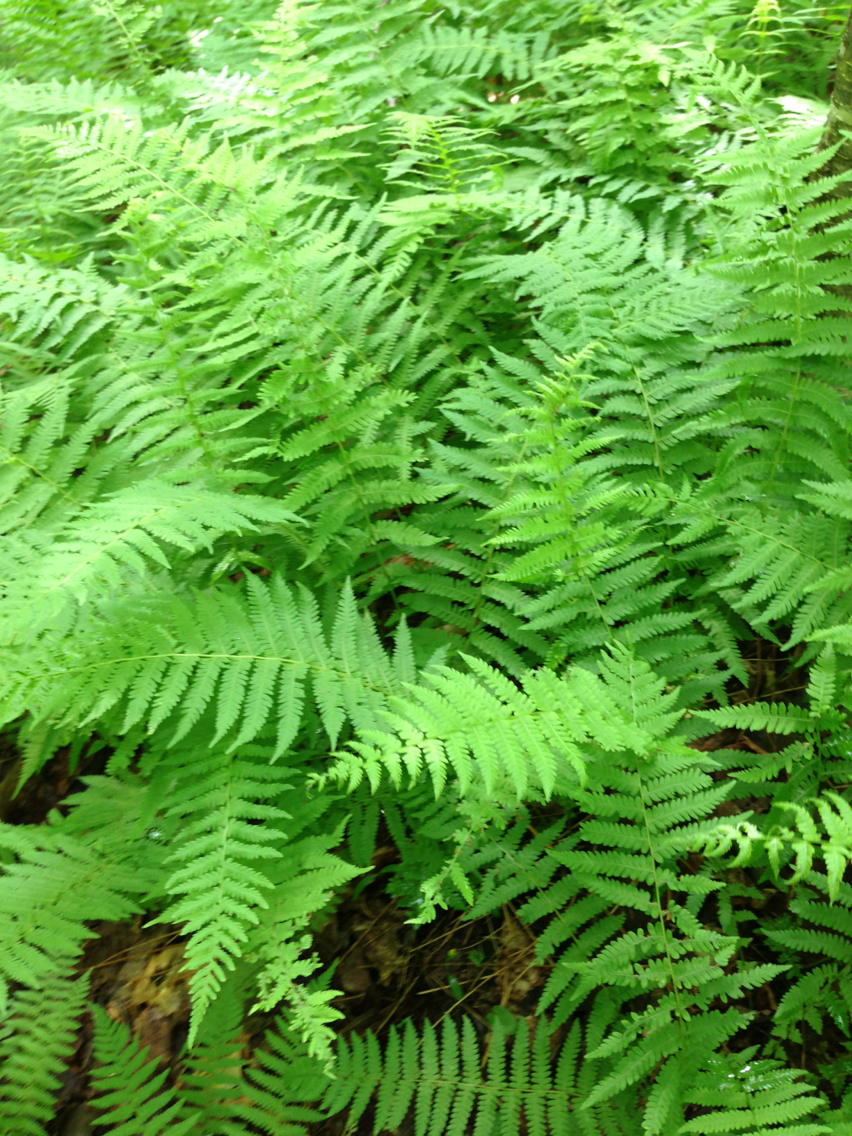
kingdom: Plantae
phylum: Tracheophyta
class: Polypodiopsida
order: Polypodiales
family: Dennstaedtiaceae
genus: Sitobolium
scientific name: Sitobolium punctilobum
